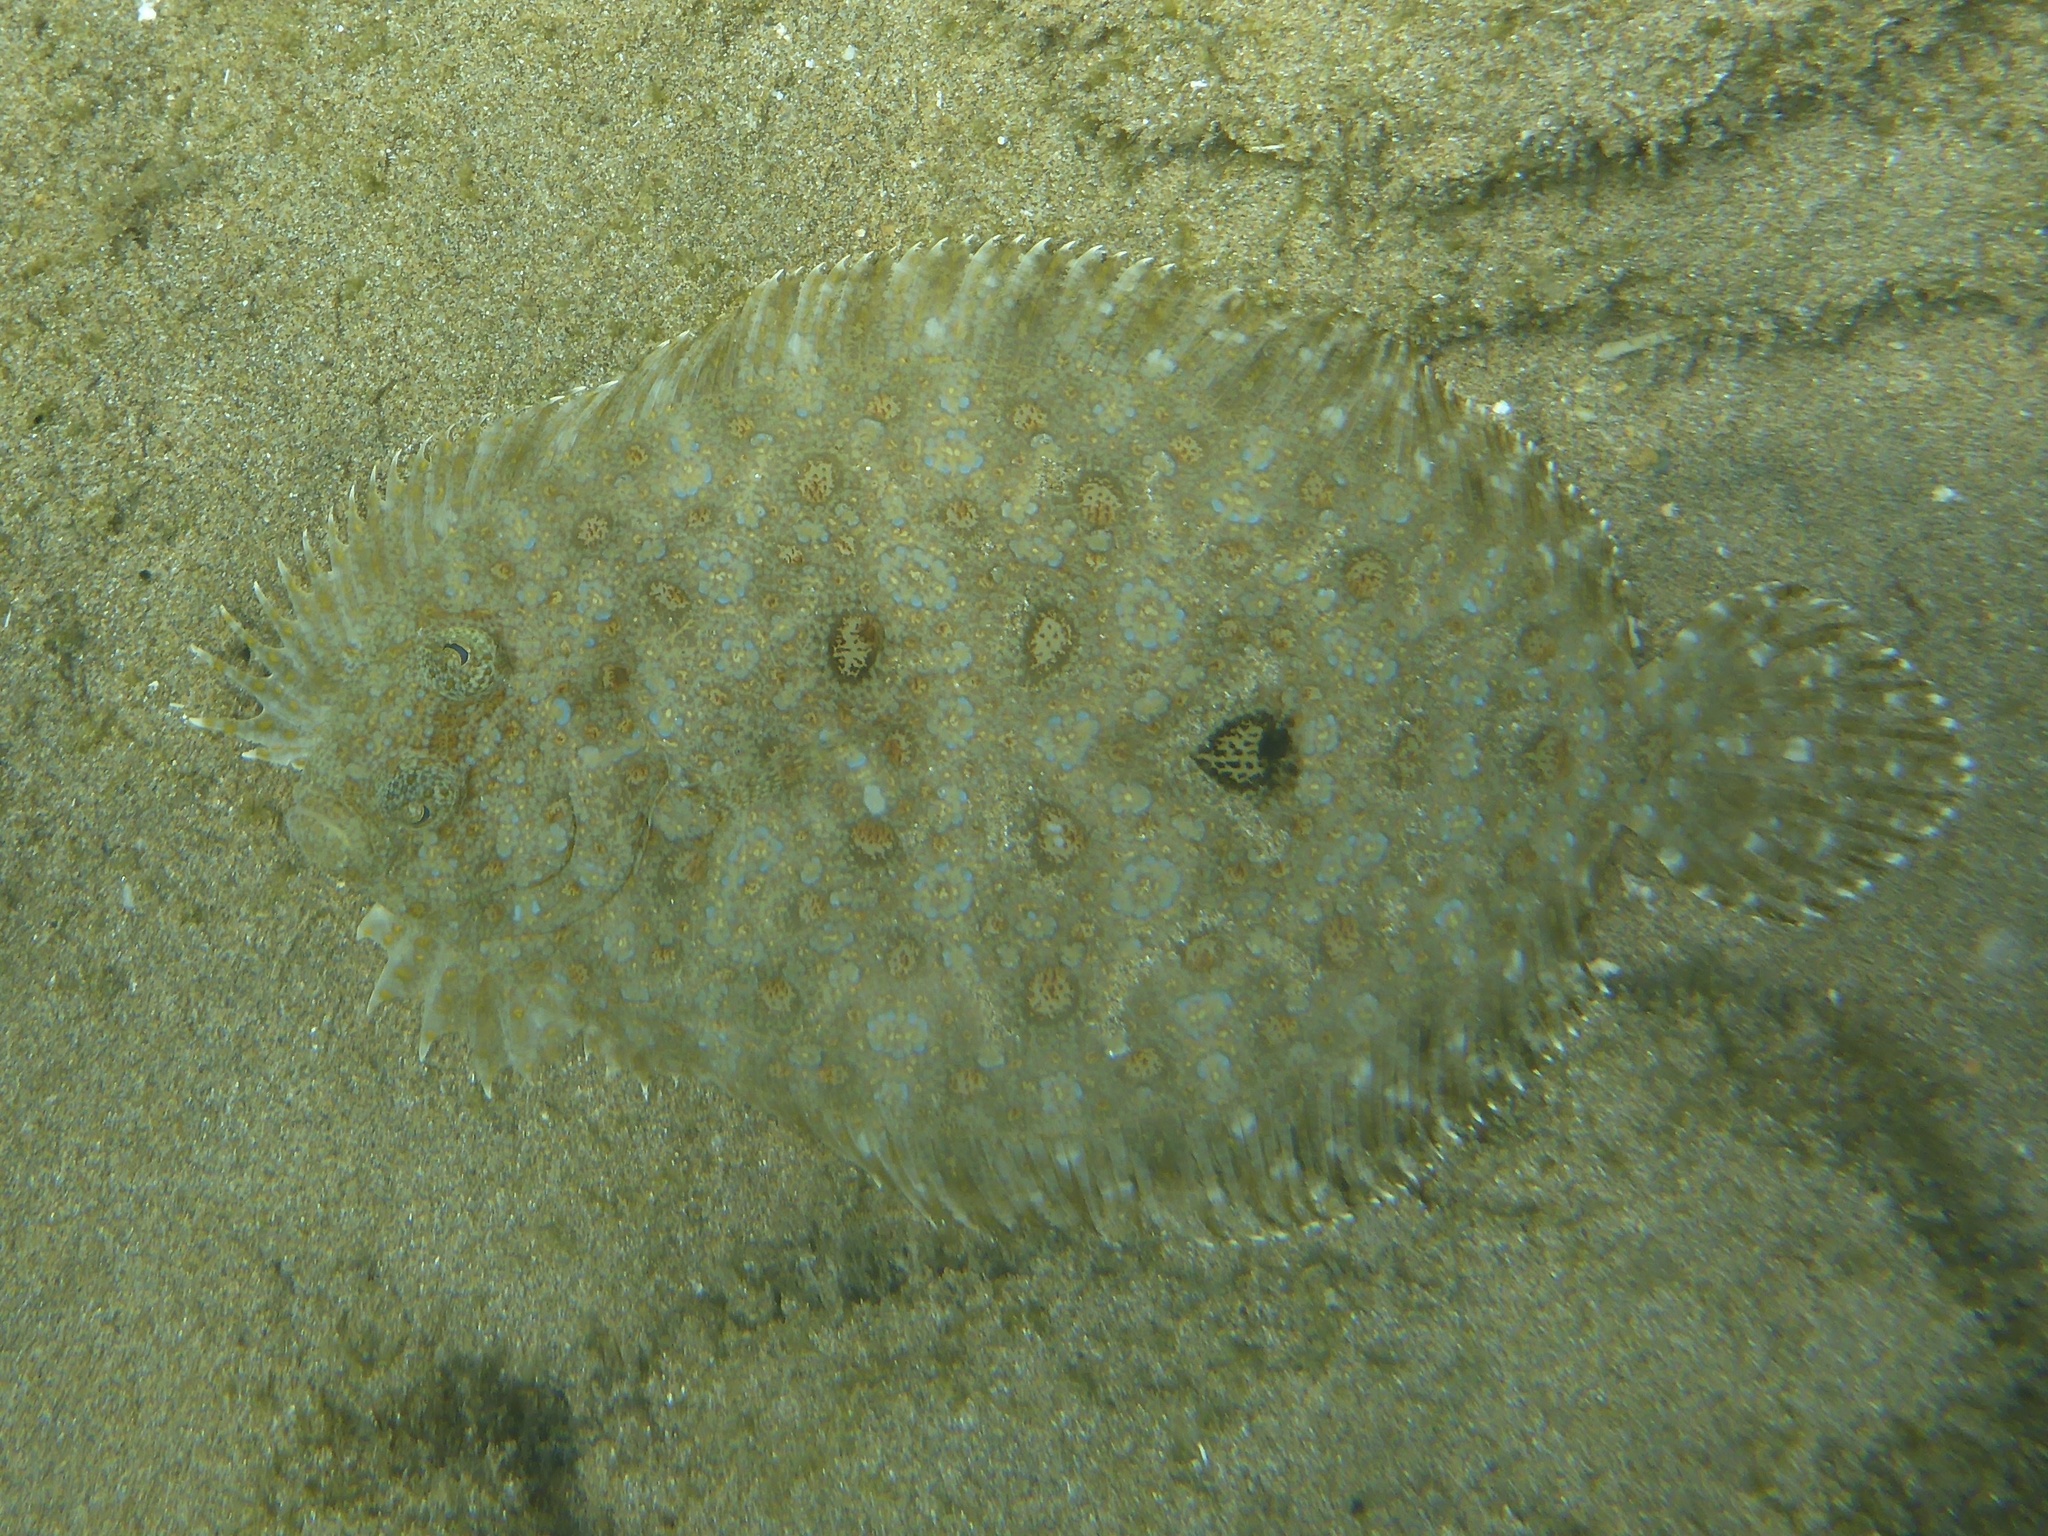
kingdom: Animalia
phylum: Chordata
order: Pleuronectiformes
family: Bothidae
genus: Bothus
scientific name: Bothus pantherinus
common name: Leopard flounder
